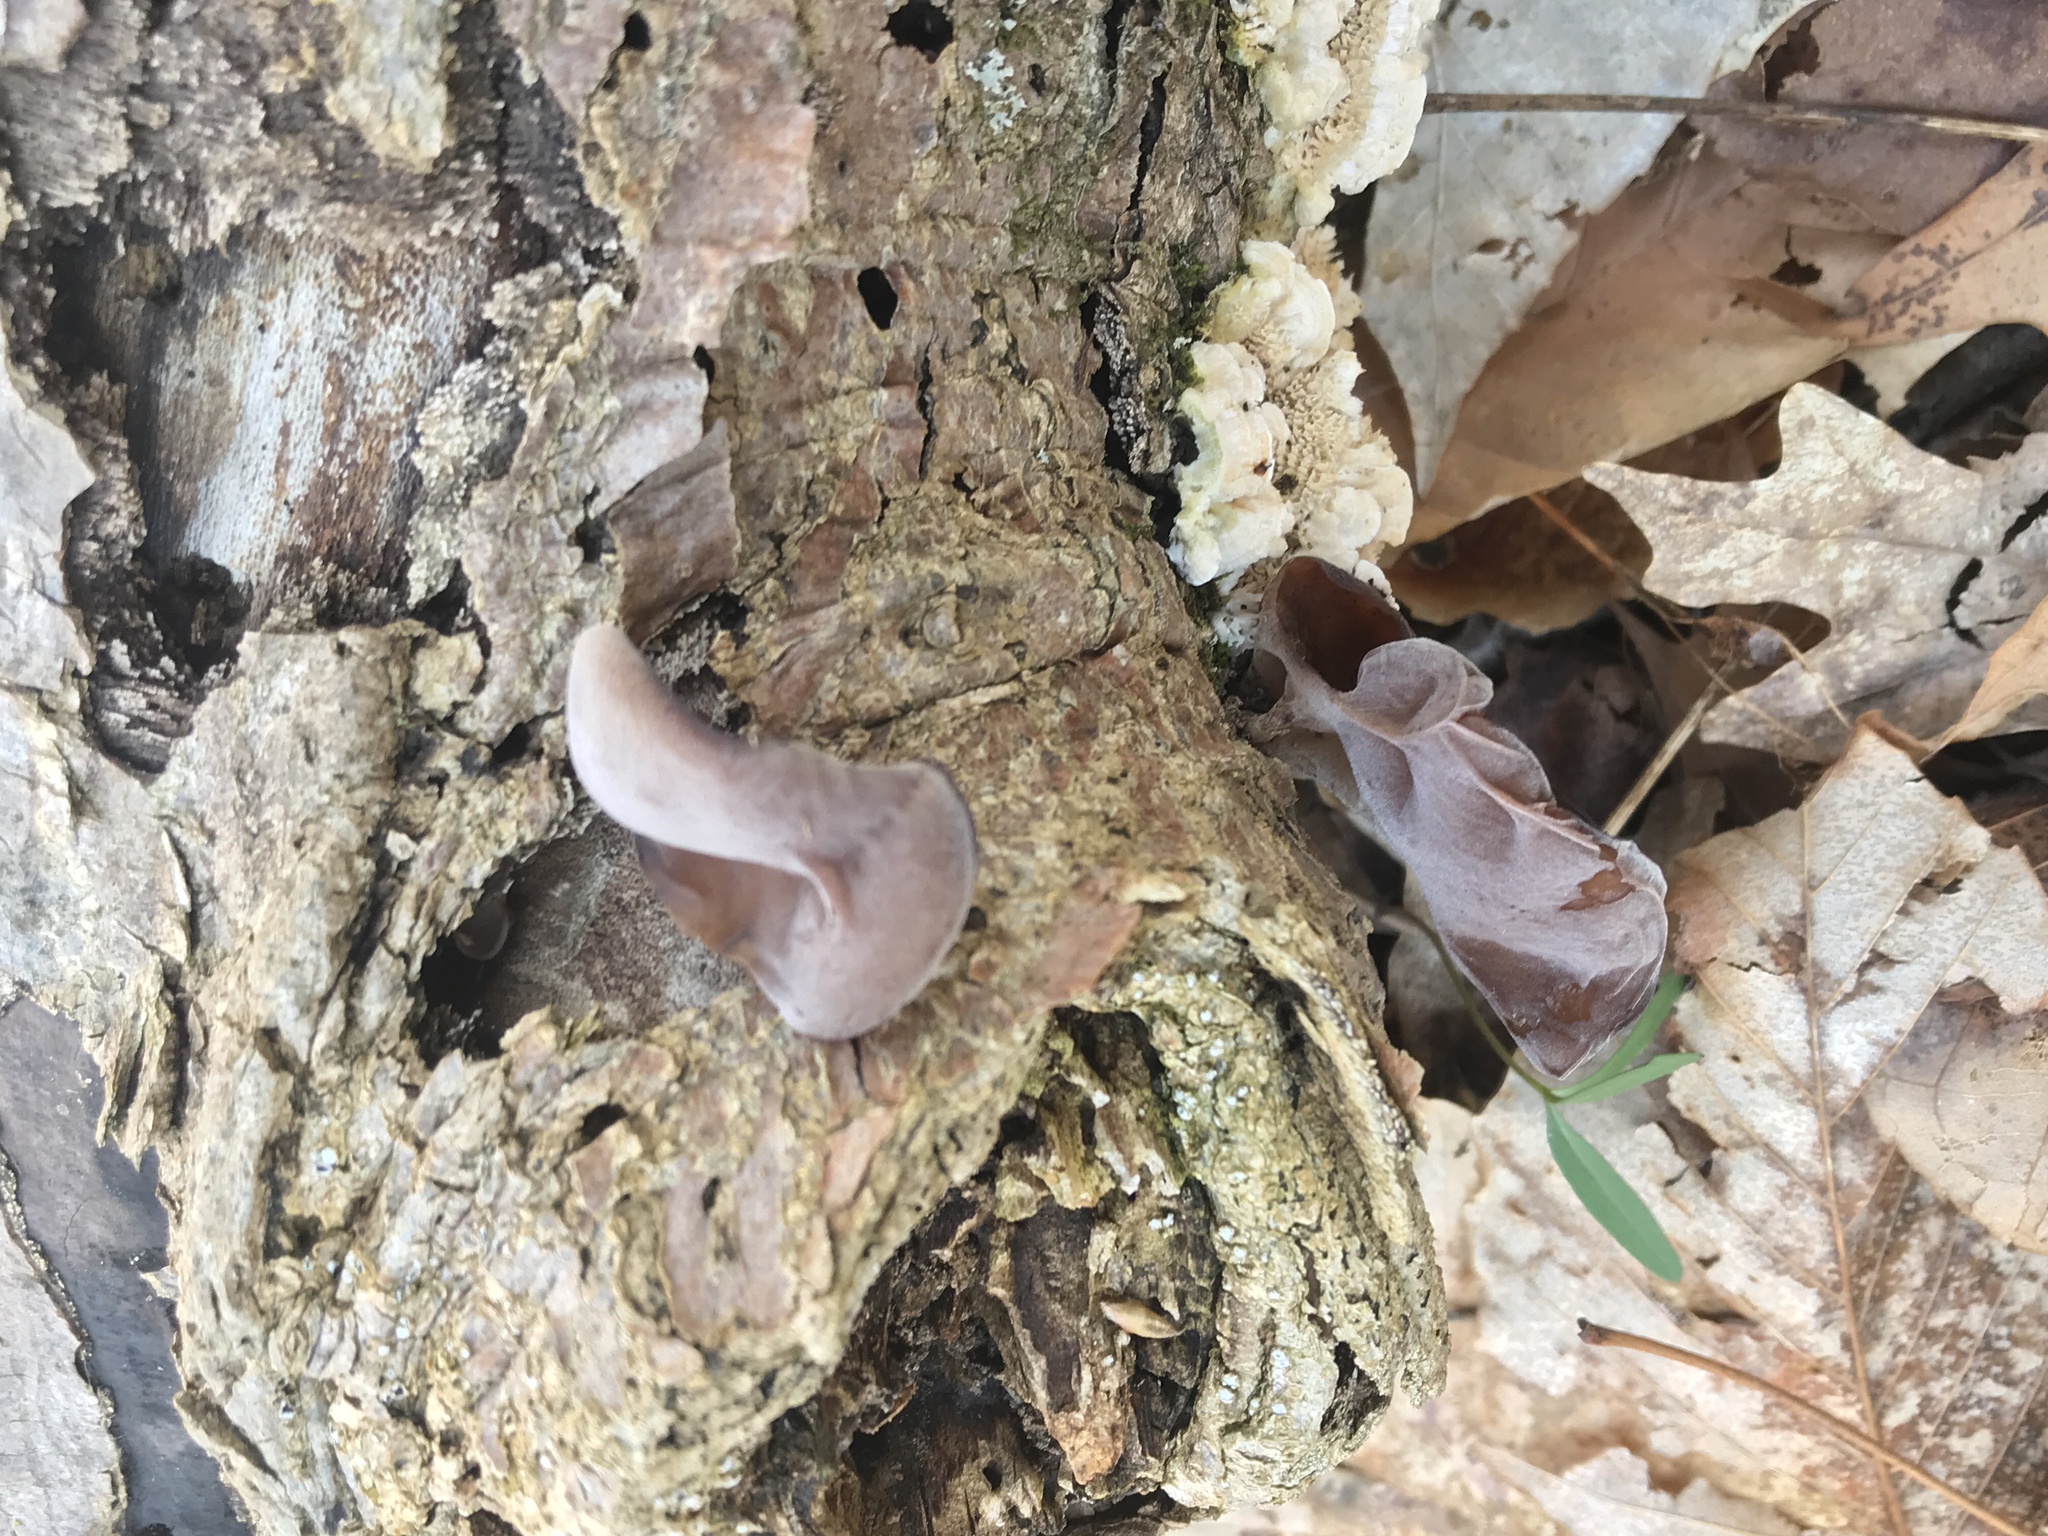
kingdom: Fungi
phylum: Basidiomycota
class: Agaricomycetes
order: Auriculariales
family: Auriculariaceae
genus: Auricularia
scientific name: Auricularia angiospermarum
